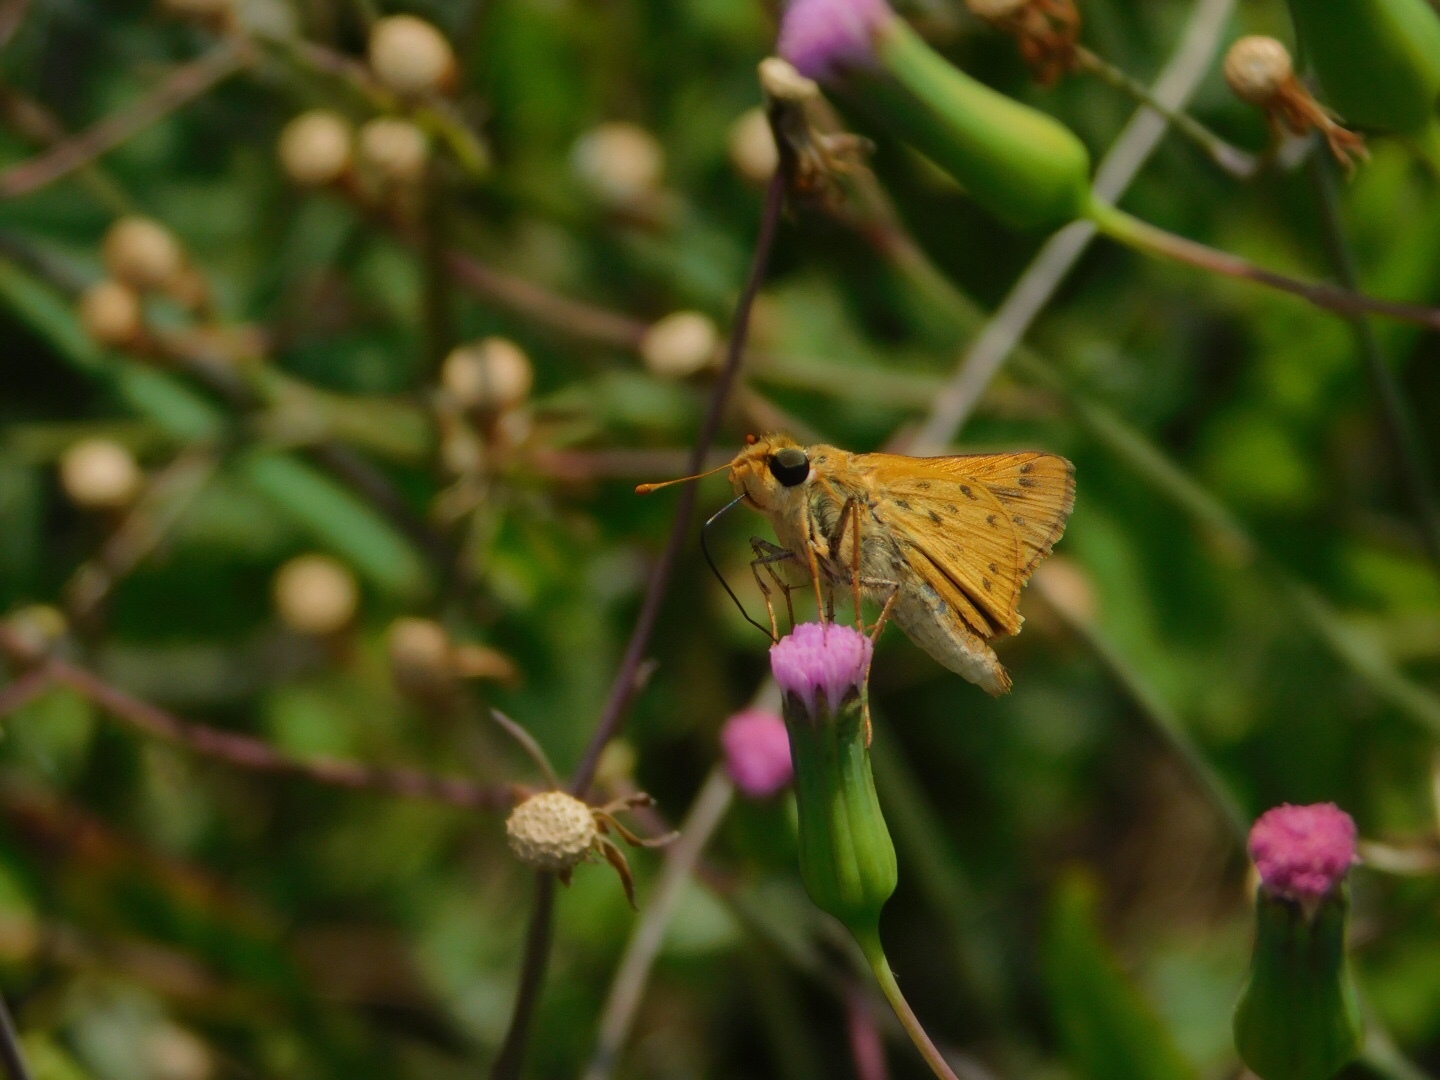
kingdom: Animalia
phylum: Arthropoda
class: Insecta
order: Lepidoptera
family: Hesperiidae
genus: Hylephila
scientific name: Hylephila phyleus
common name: Fiery skipper
